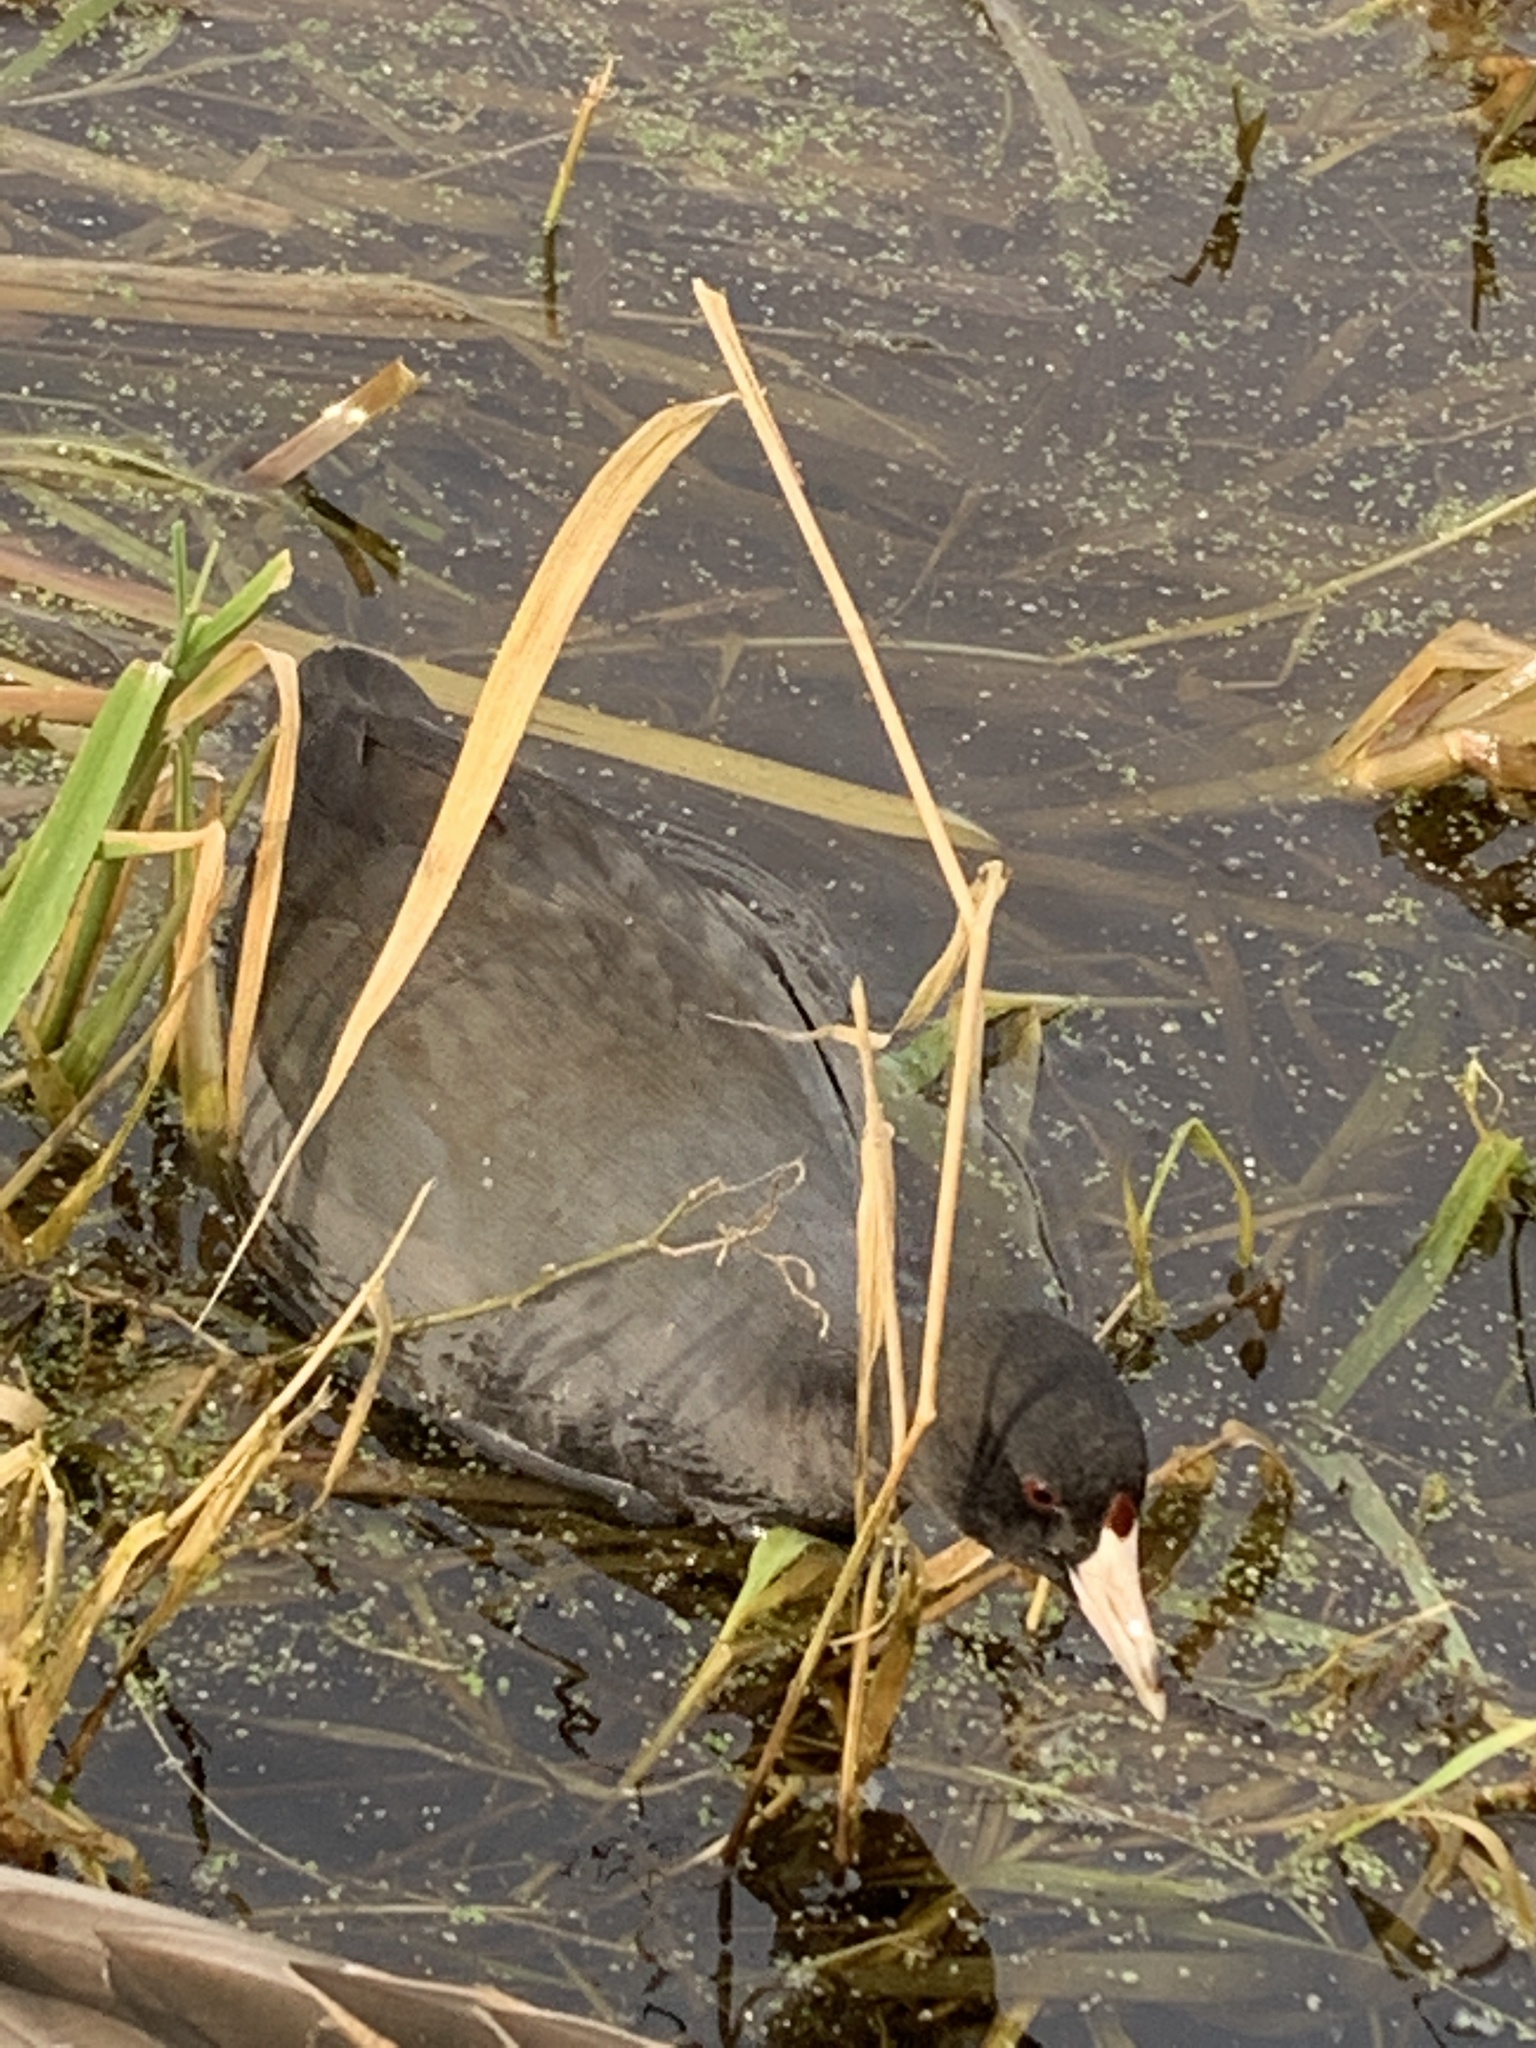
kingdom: Animalia
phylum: Chordata
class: Aves
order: Gruiformes
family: Rallidae
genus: Fulica
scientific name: Fulica americana
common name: American coot
